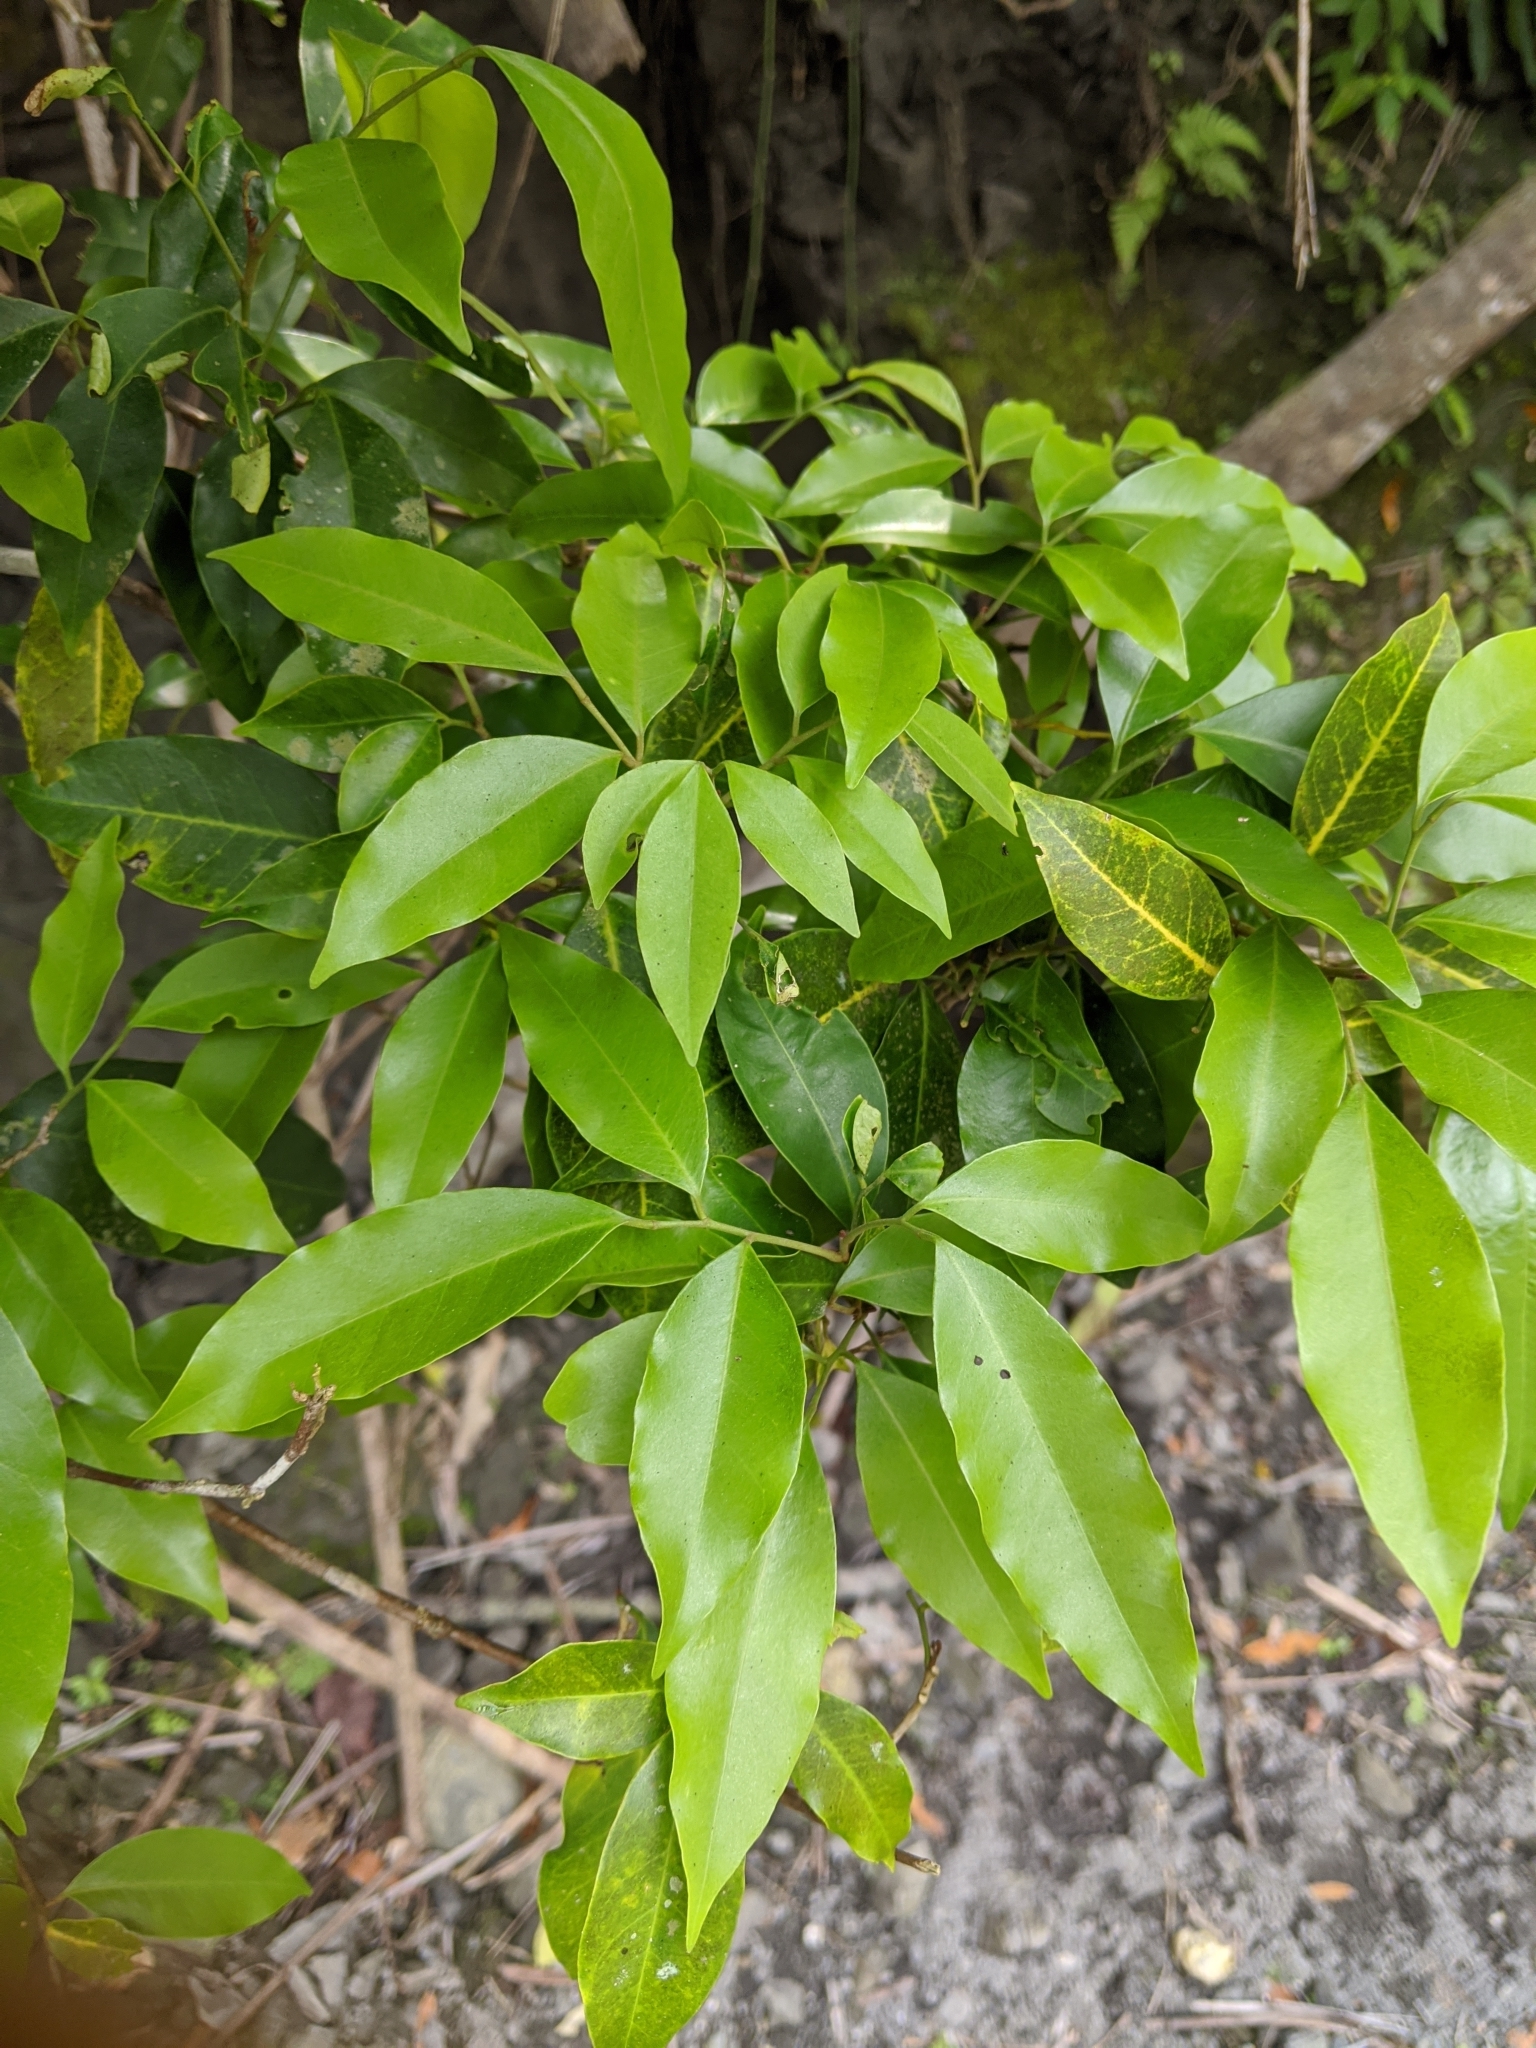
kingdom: Plantae
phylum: Tracheophyta
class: Magnoliopsida
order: Sapindales
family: Rutaceae
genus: Glycosmis
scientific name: Glycosmis parviflora
